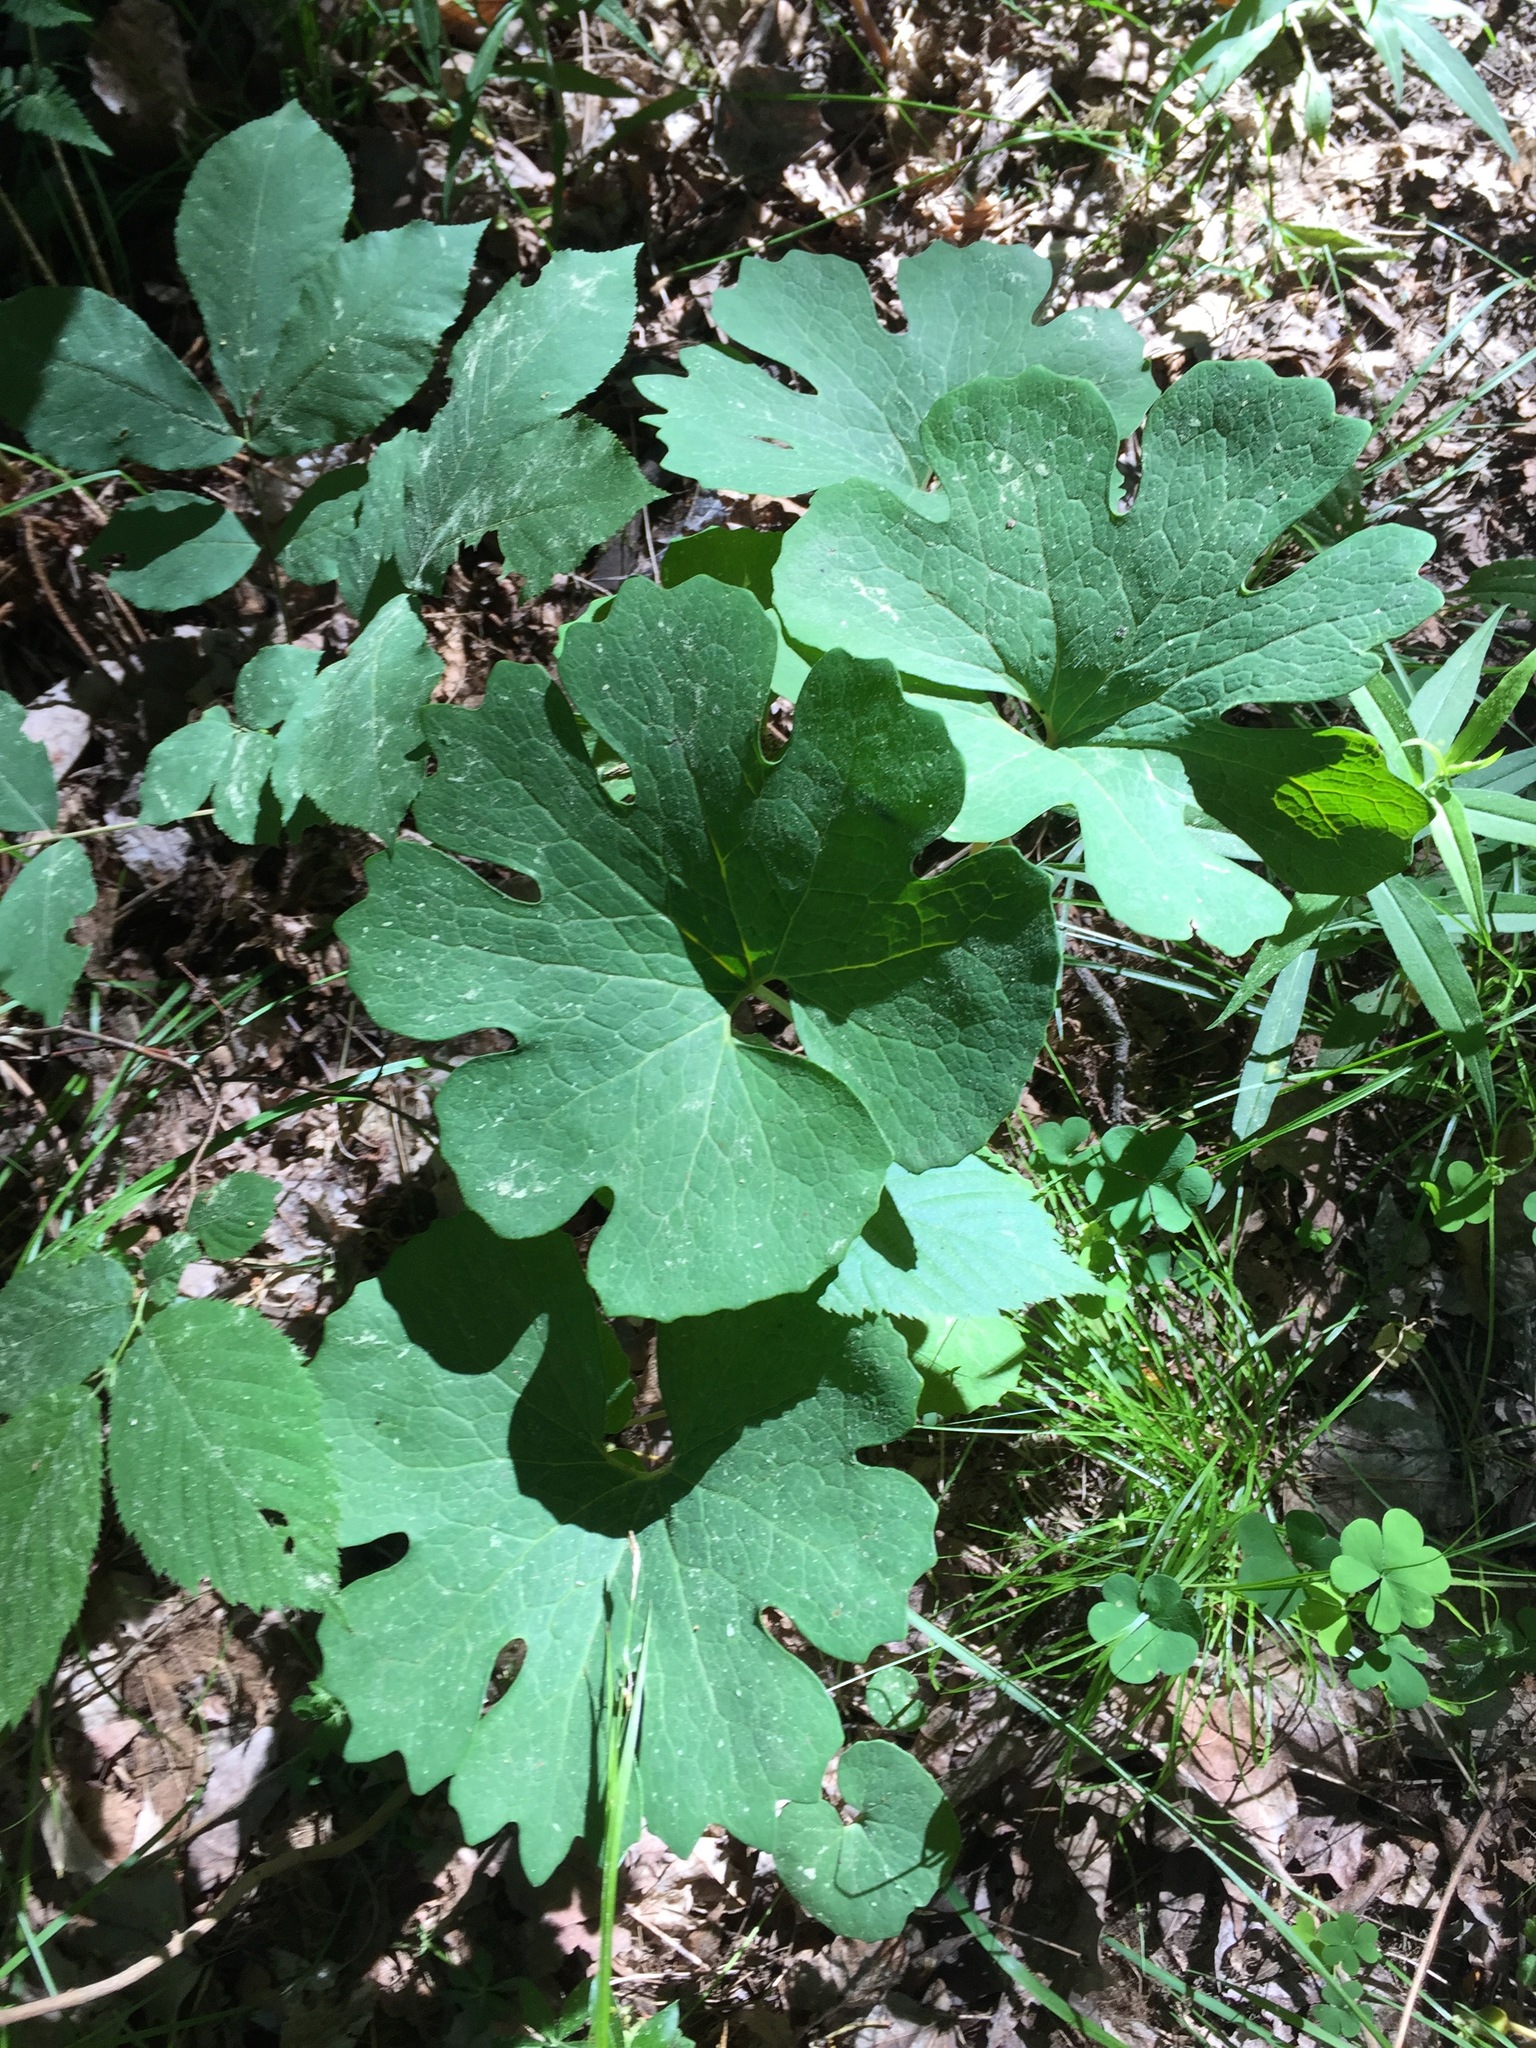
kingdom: Plantae
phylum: Tracheophyta
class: Magnoliopsida
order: Ranunculales
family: Papaveraceae
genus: Sanguinaria
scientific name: Sanguinaria canadensis
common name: Bloodroot
